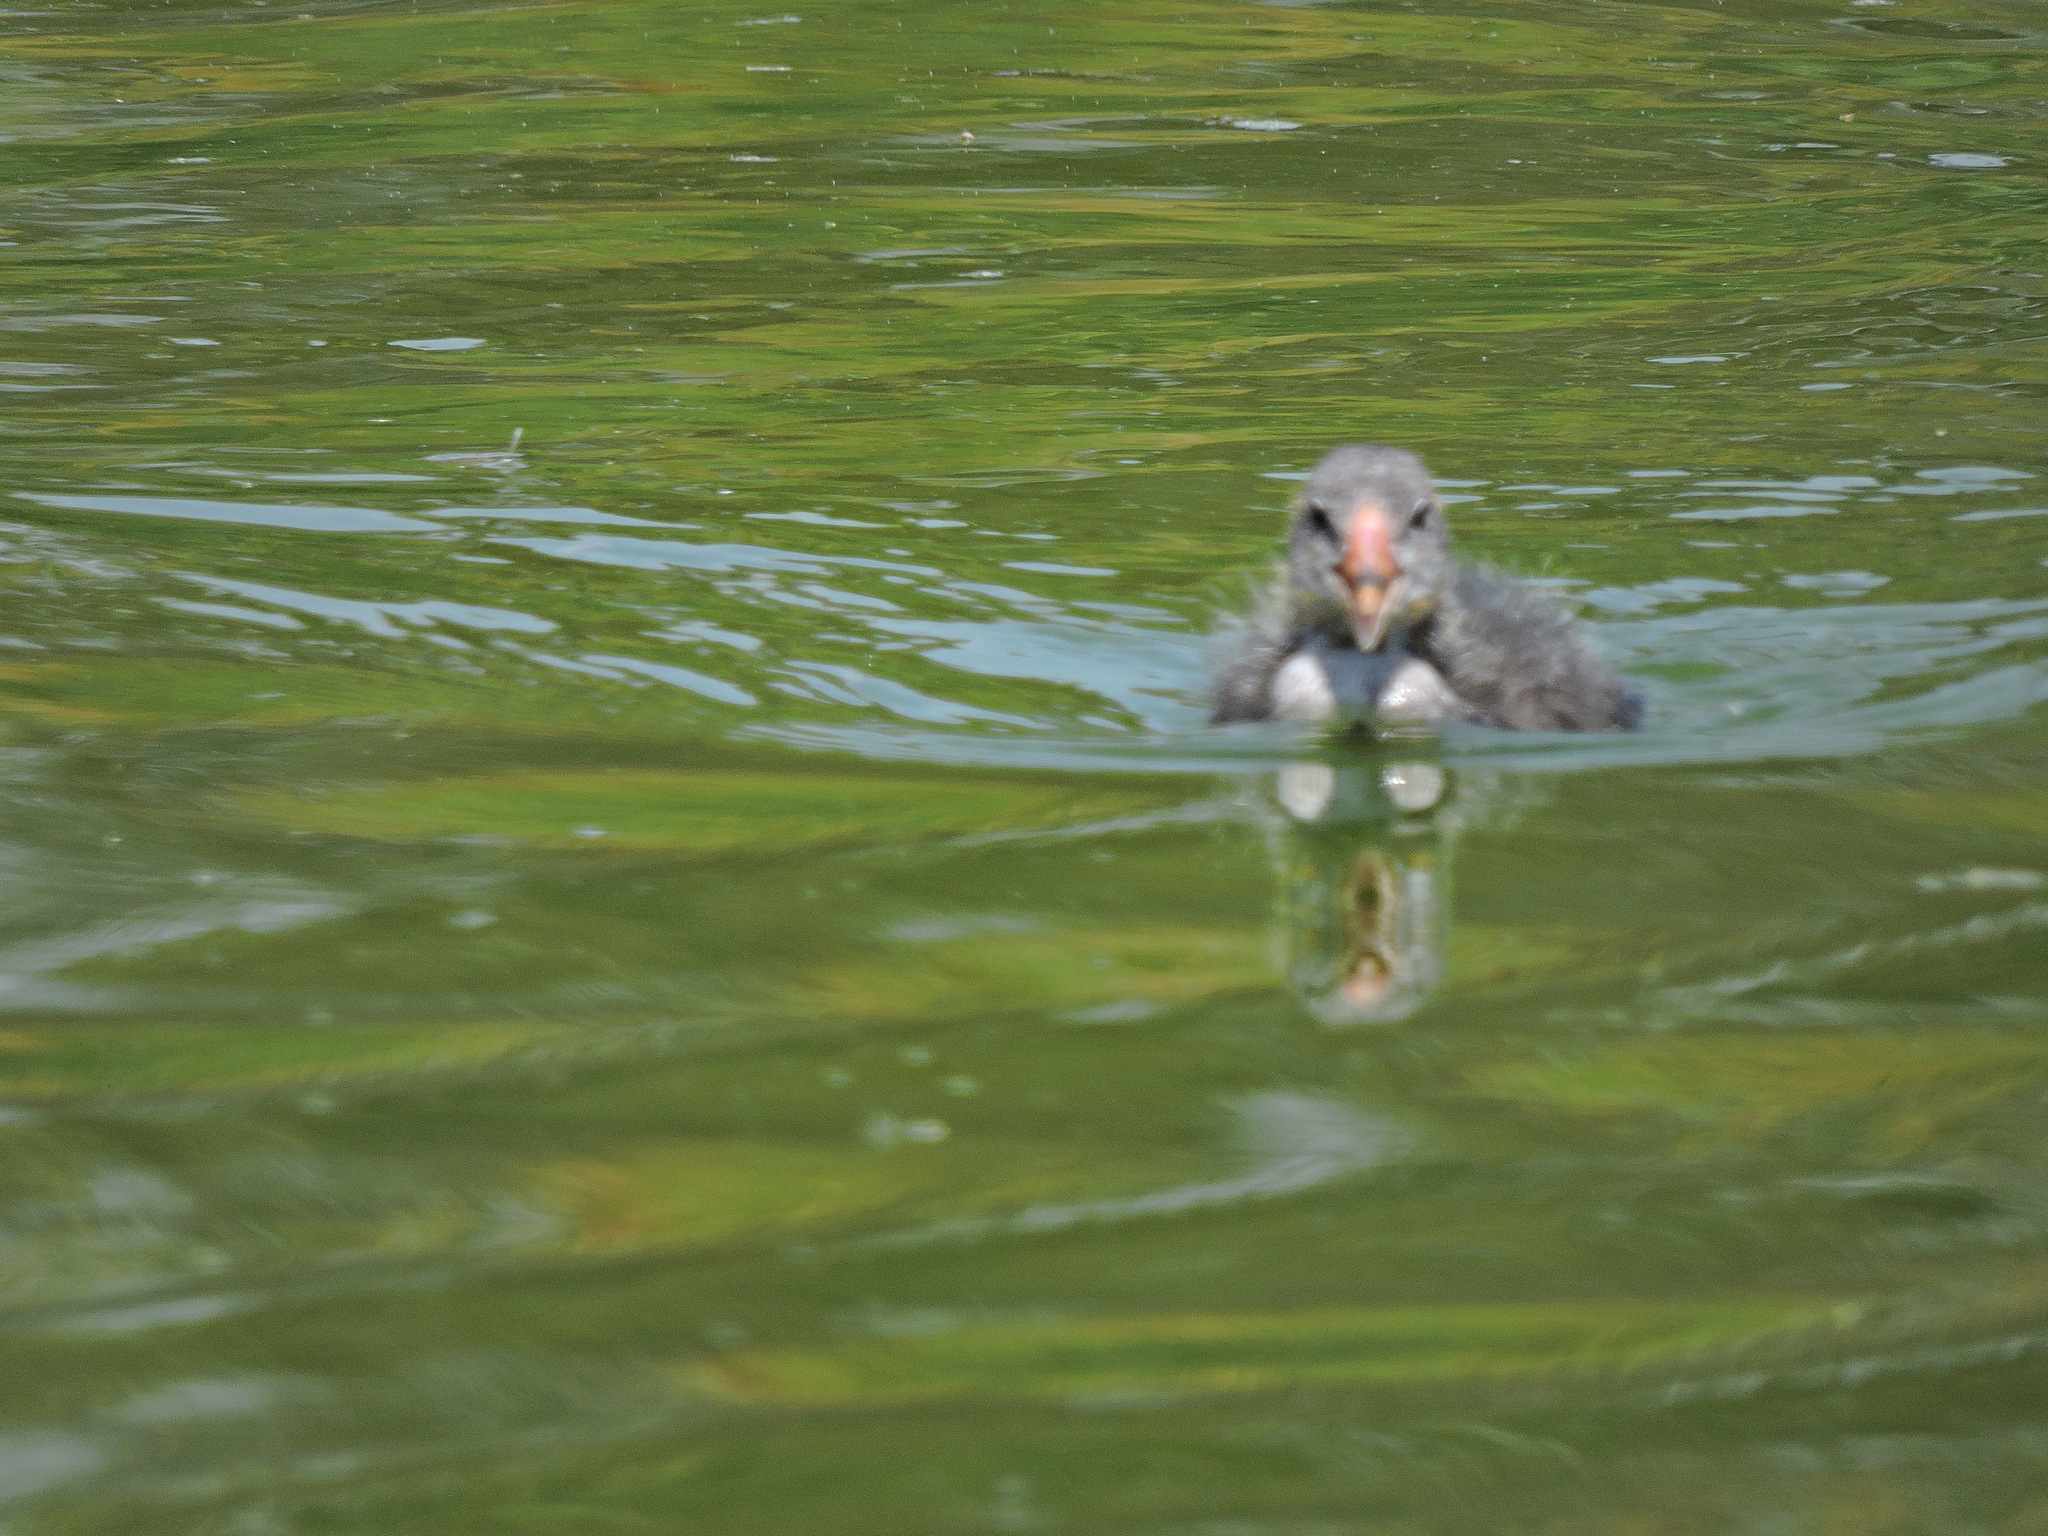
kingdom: Animalia
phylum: Chordata
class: Aves
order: Gruiformes
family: Rallidae
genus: Gallinula
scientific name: Gallinula chloropus
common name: Common moorhen
